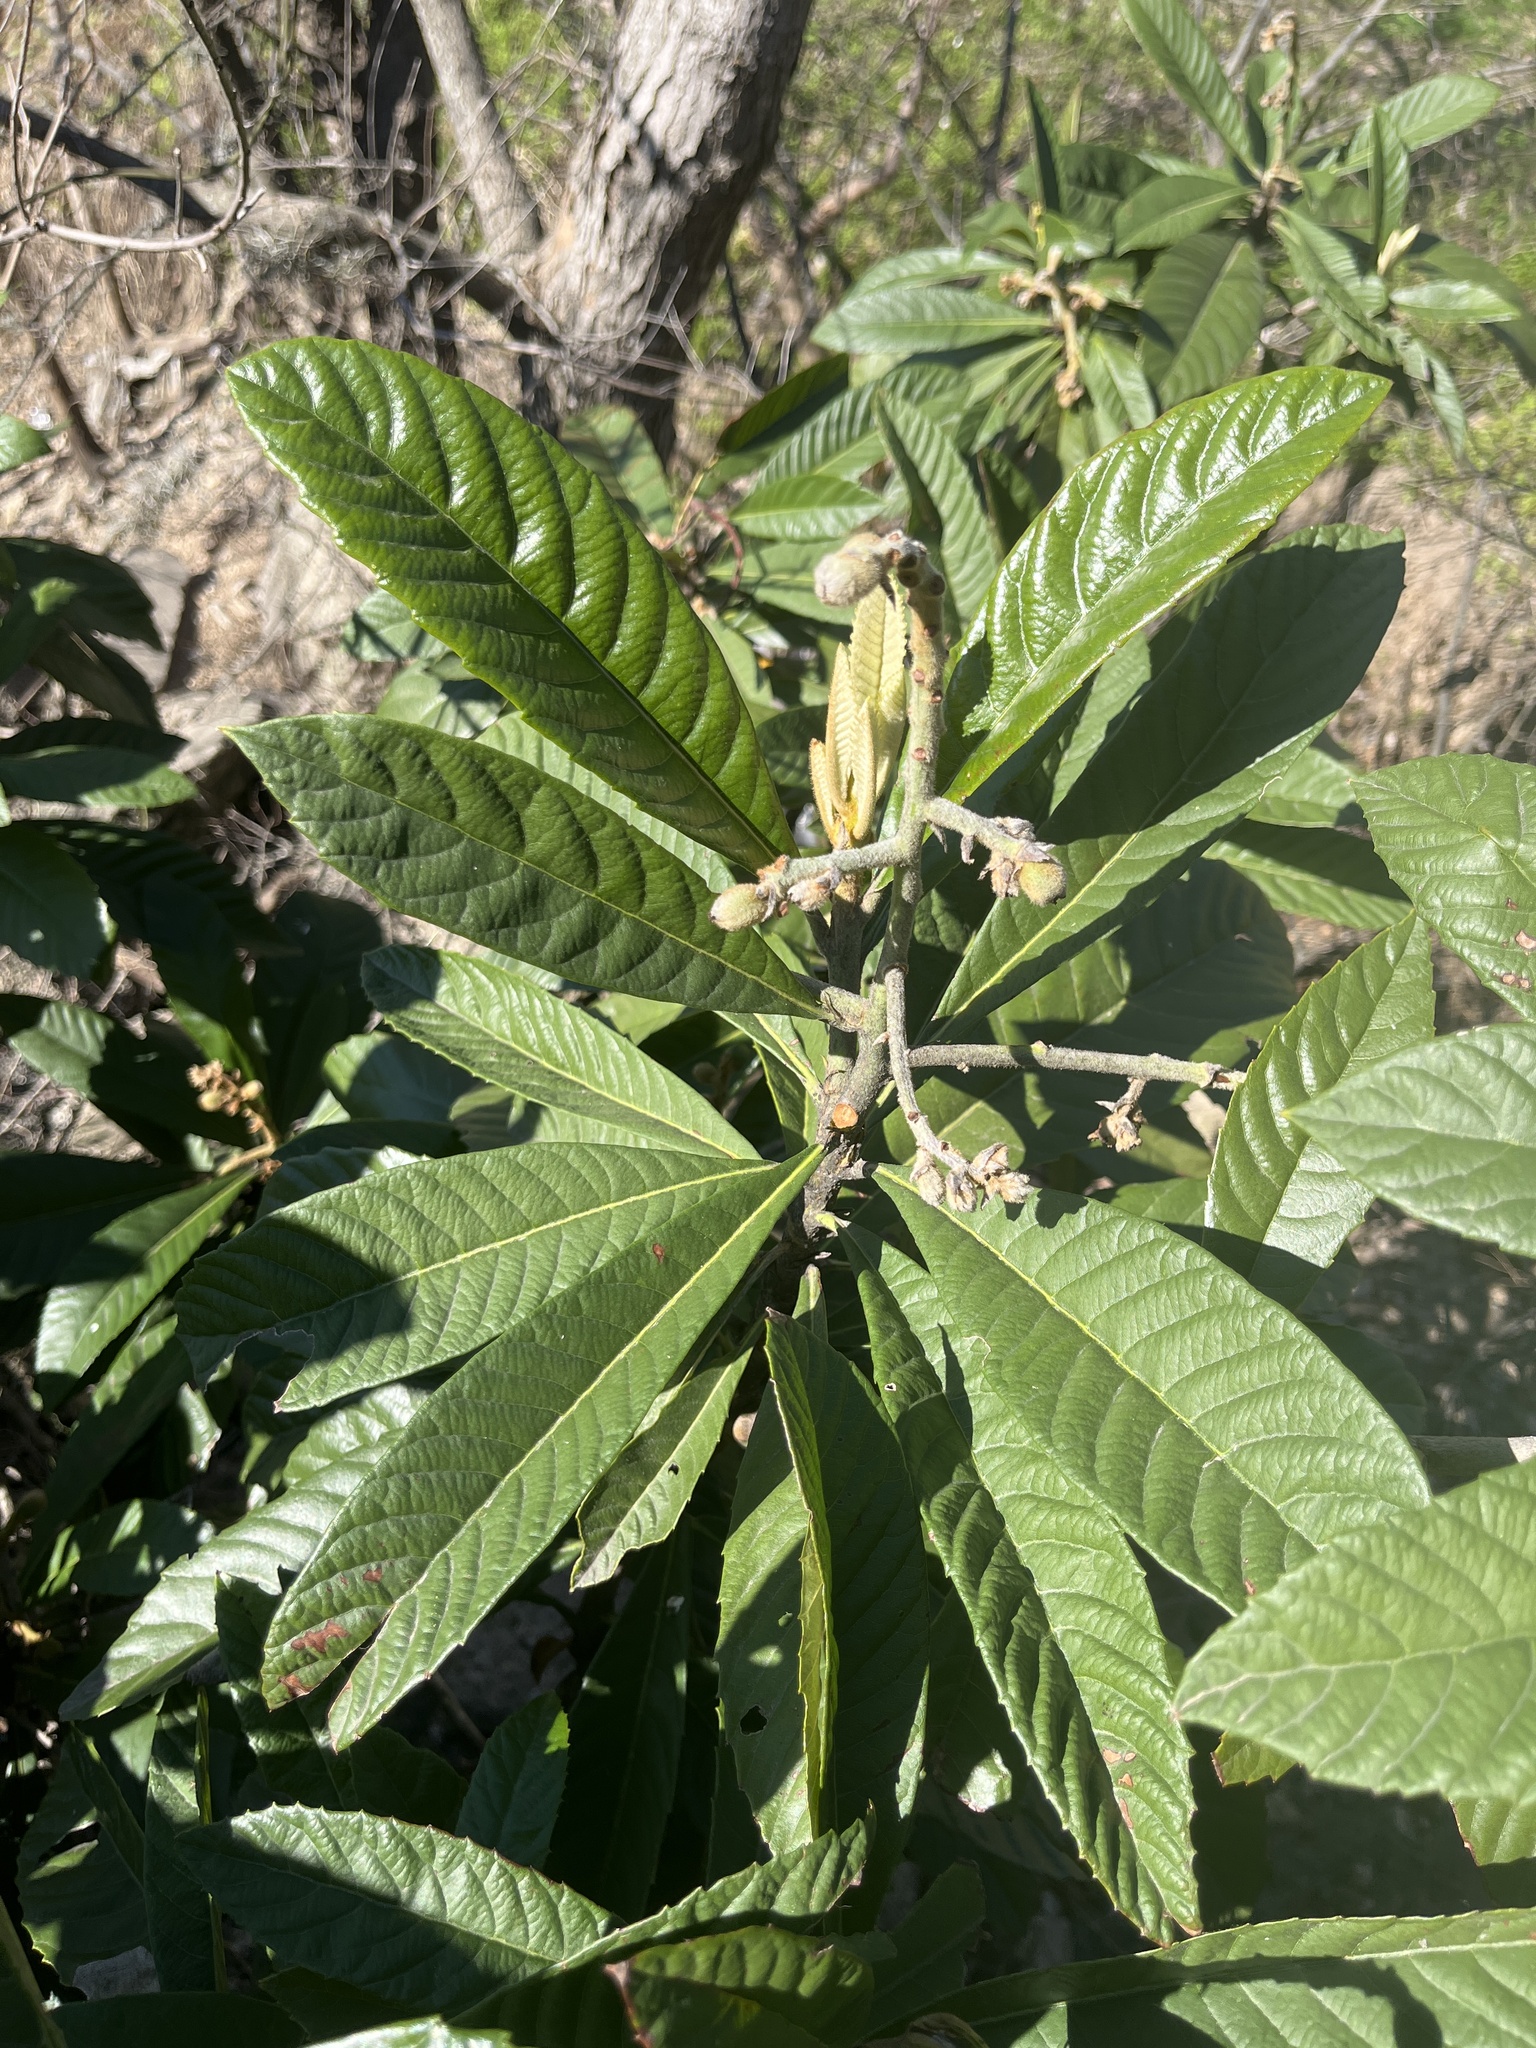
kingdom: Plantae
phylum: Tracheophyta
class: Magnoliopsida
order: Rosales
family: Rosaceae
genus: Rhaphiolepis
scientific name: Rhaphiolepis bibas
